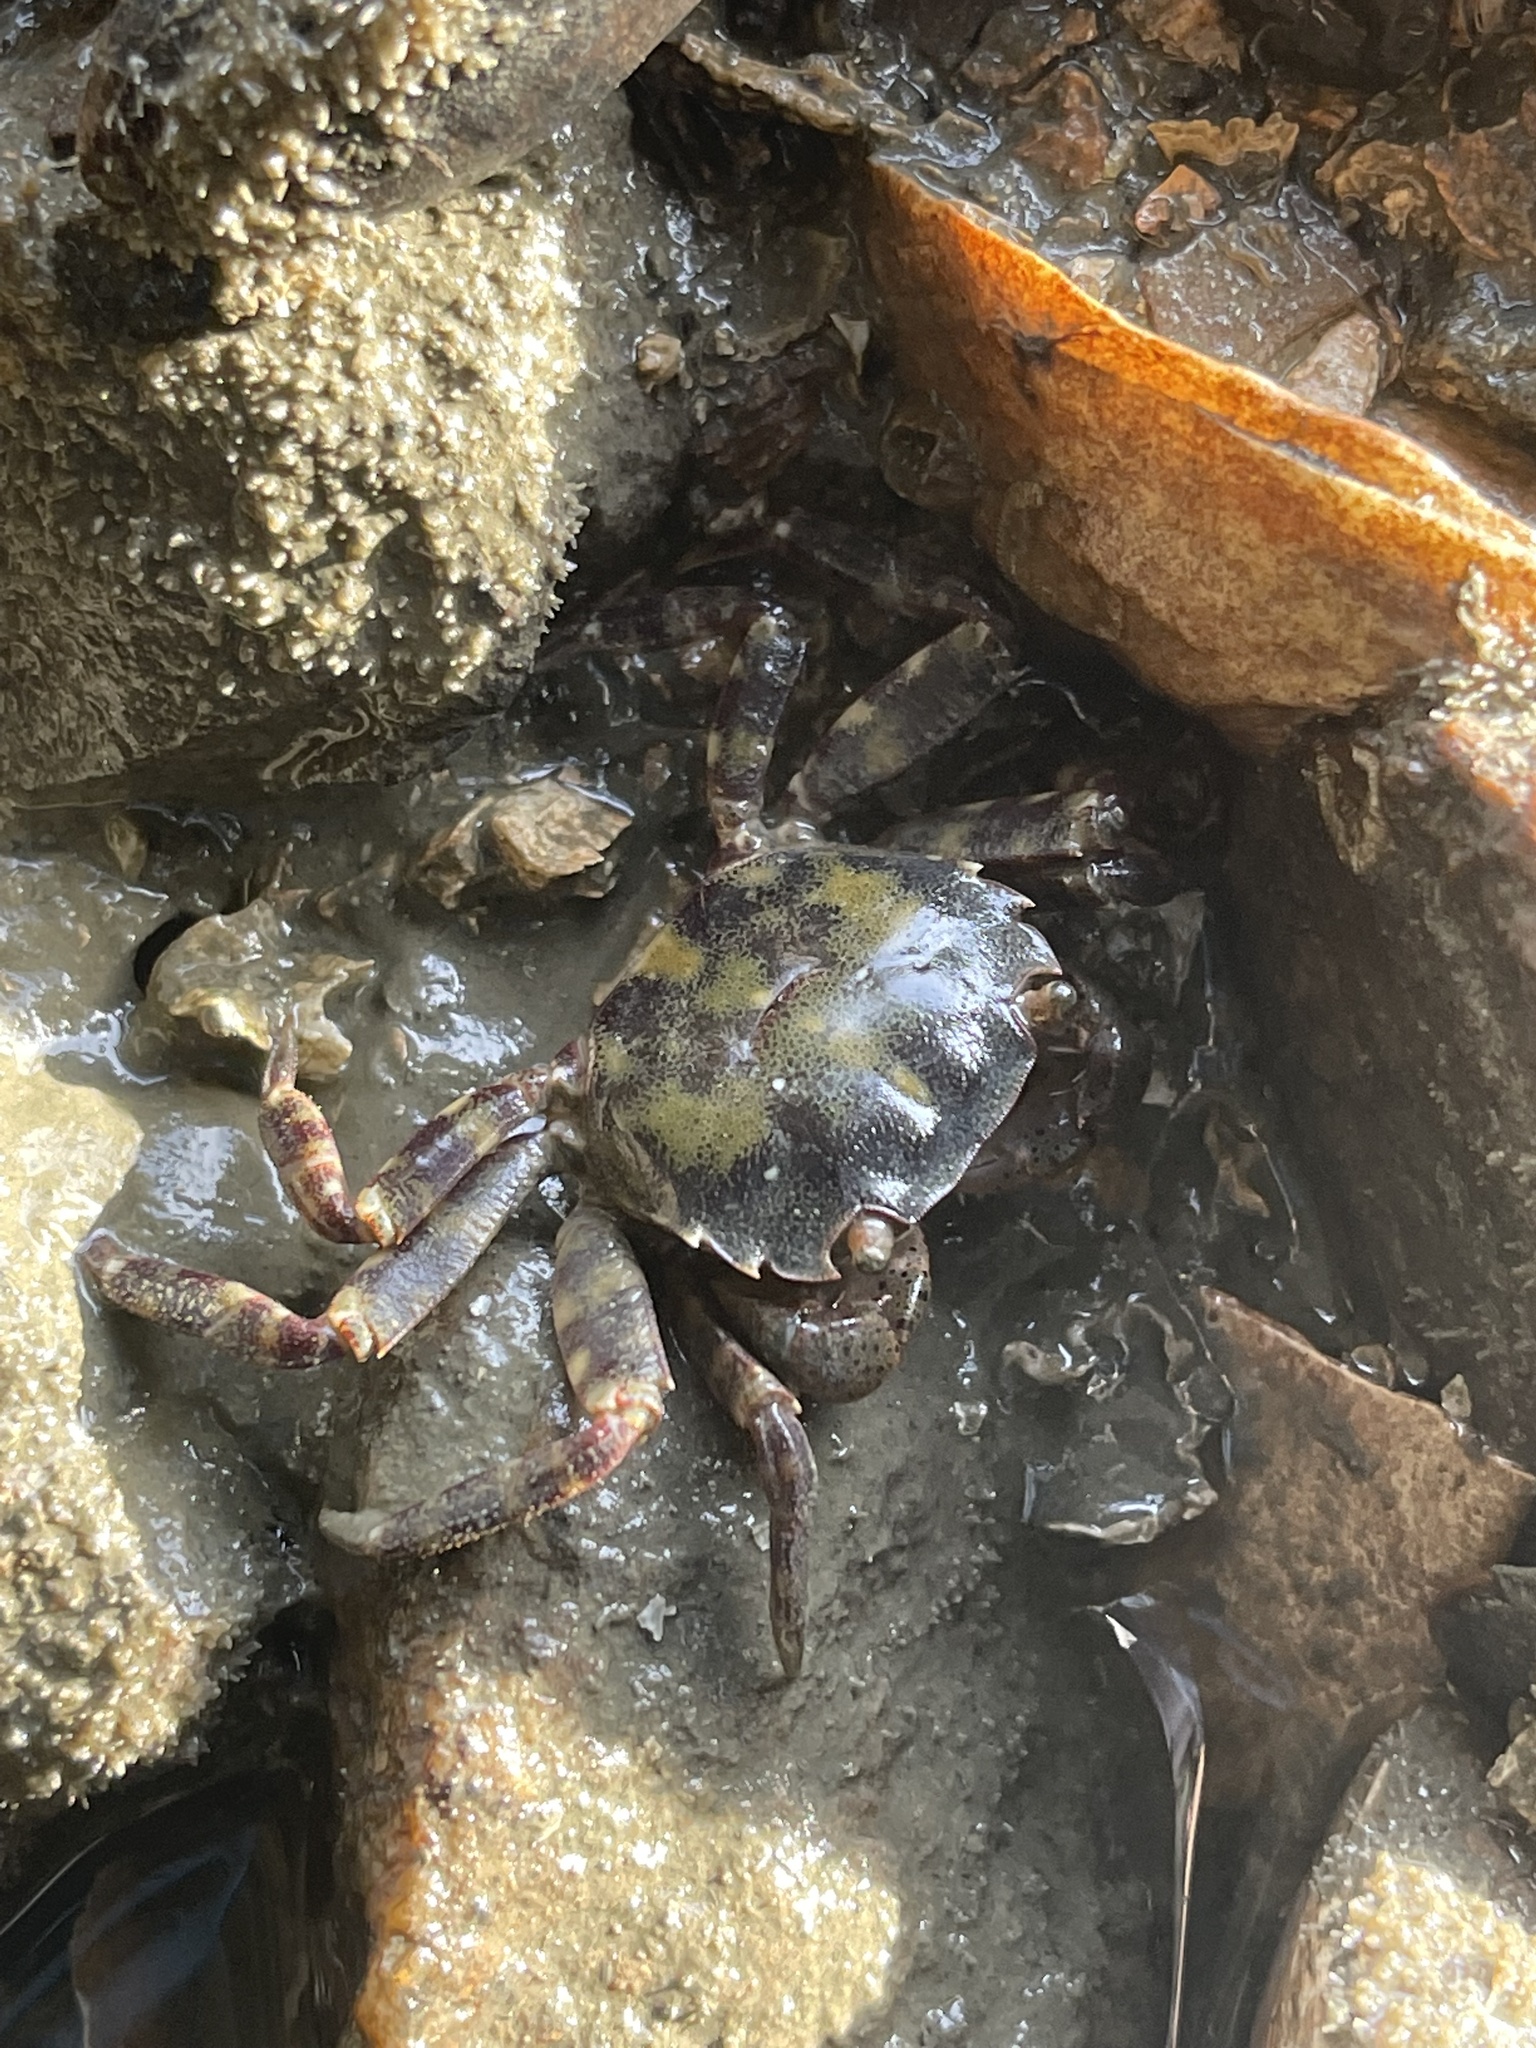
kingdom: Animalia
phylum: Arthropoda
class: Malacostraca
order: Decapoda
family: Varunidae
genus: Hemigrapsus
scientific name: Hemigrapsus sanguineus
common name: Asian shore crab
